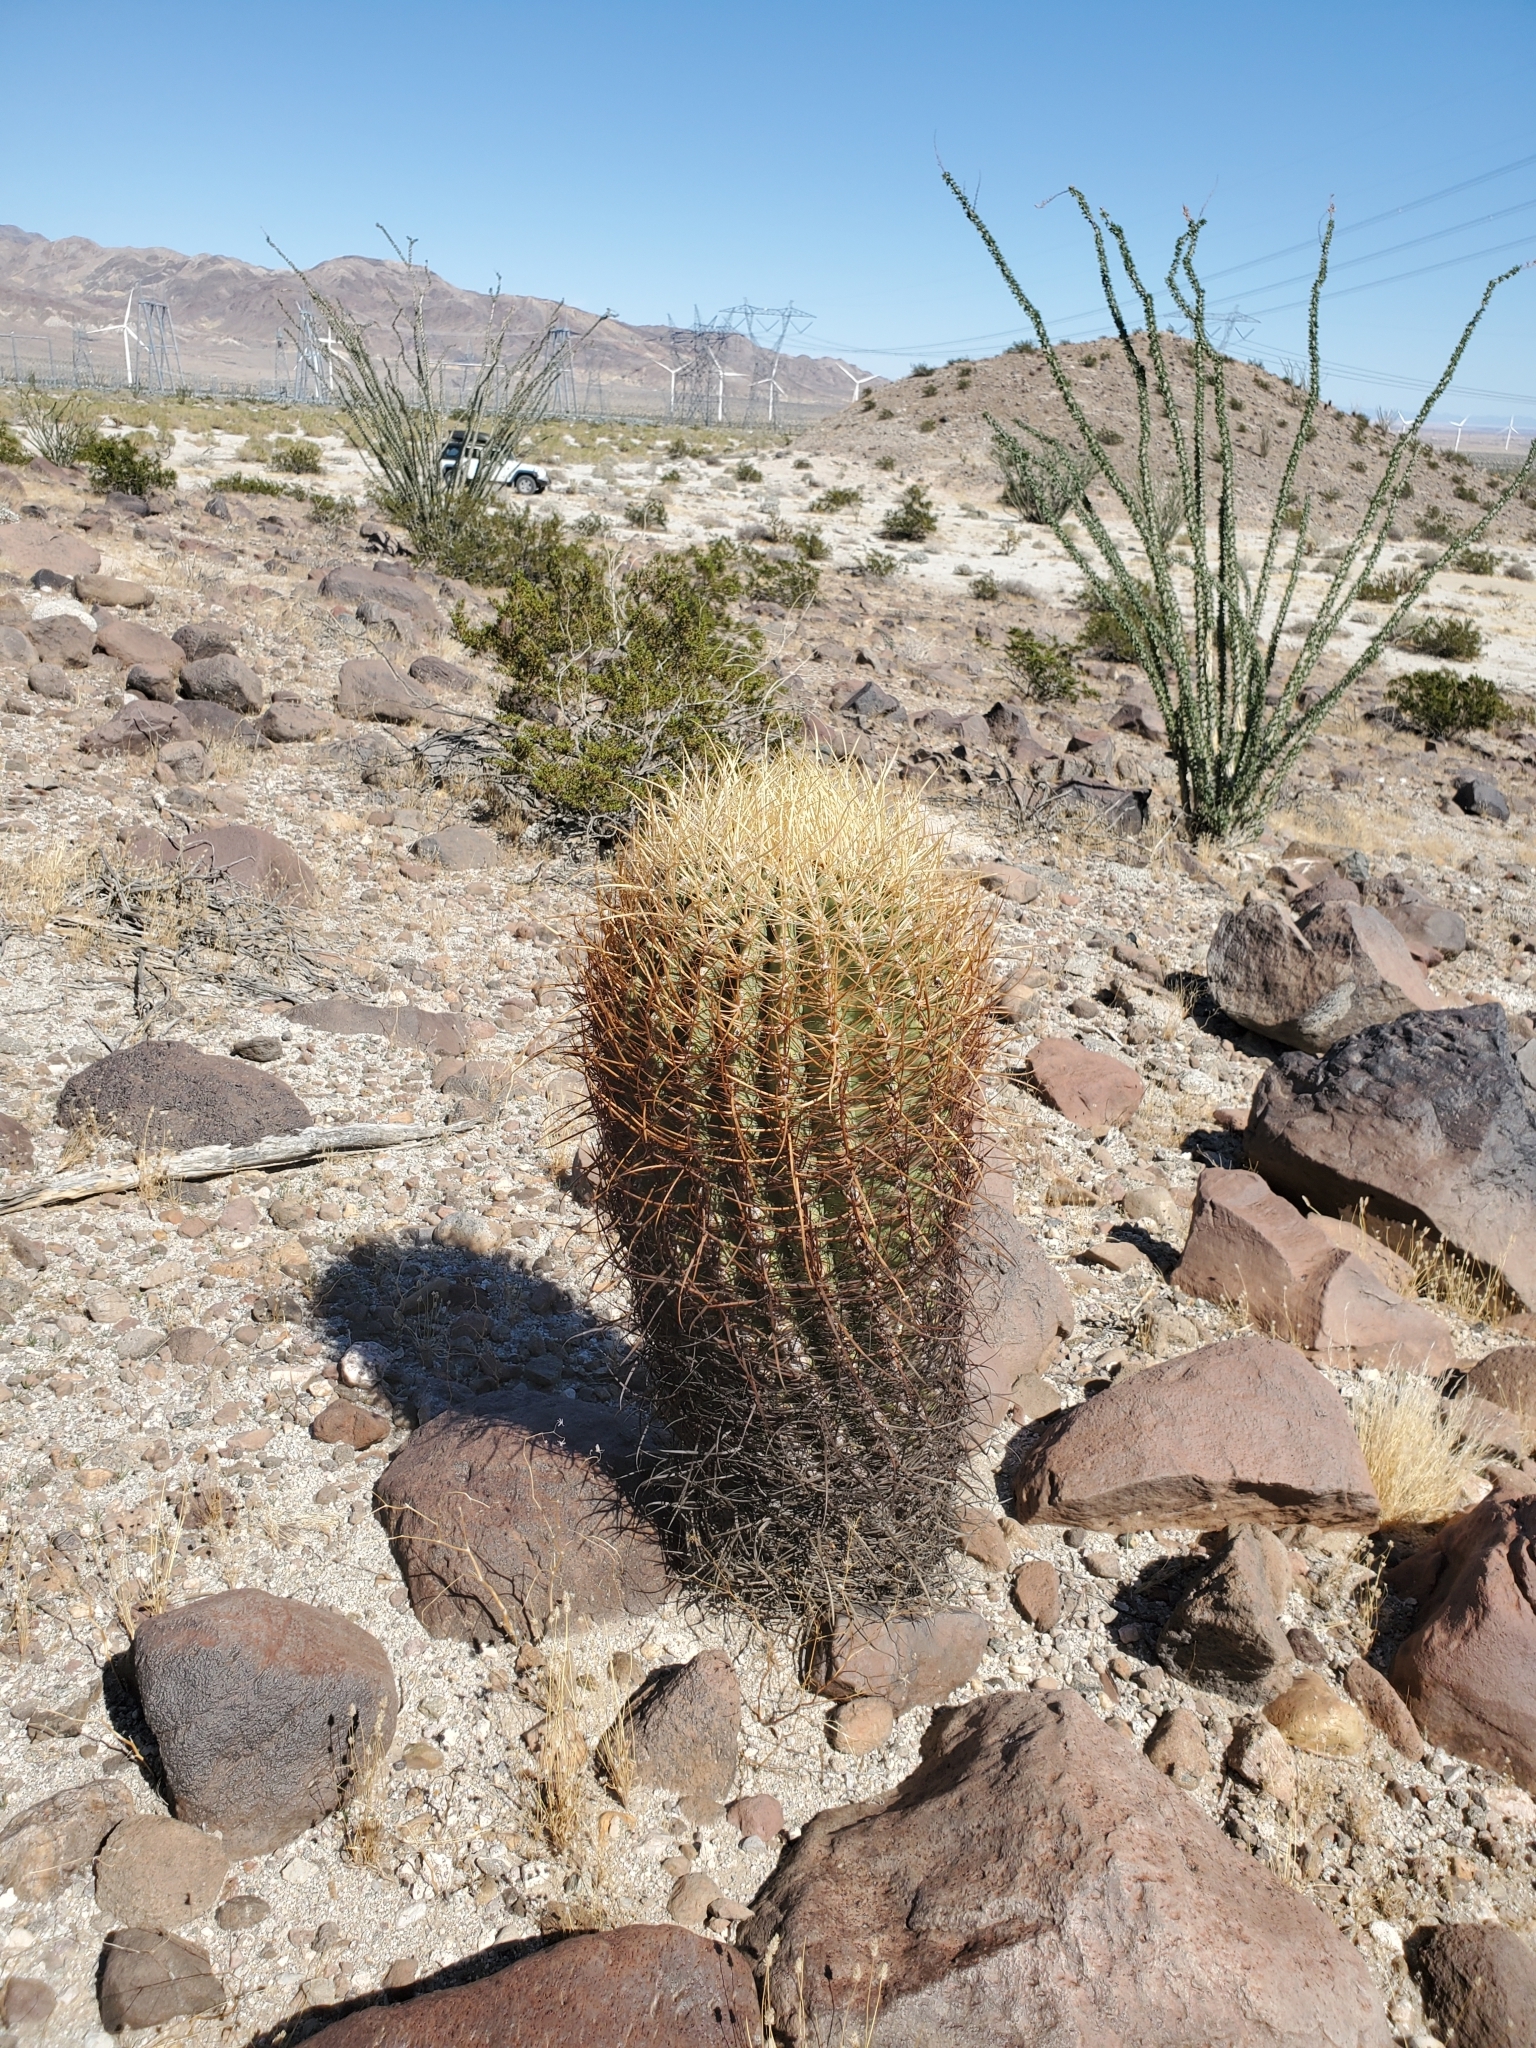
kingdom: Plantae
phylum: Tracheophyta
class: Magnoliopsida
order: Caryophyllales
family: Cactaceae
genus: Ferocactus
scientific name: Ferocactus cylindraceus
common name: California barrel cactus
